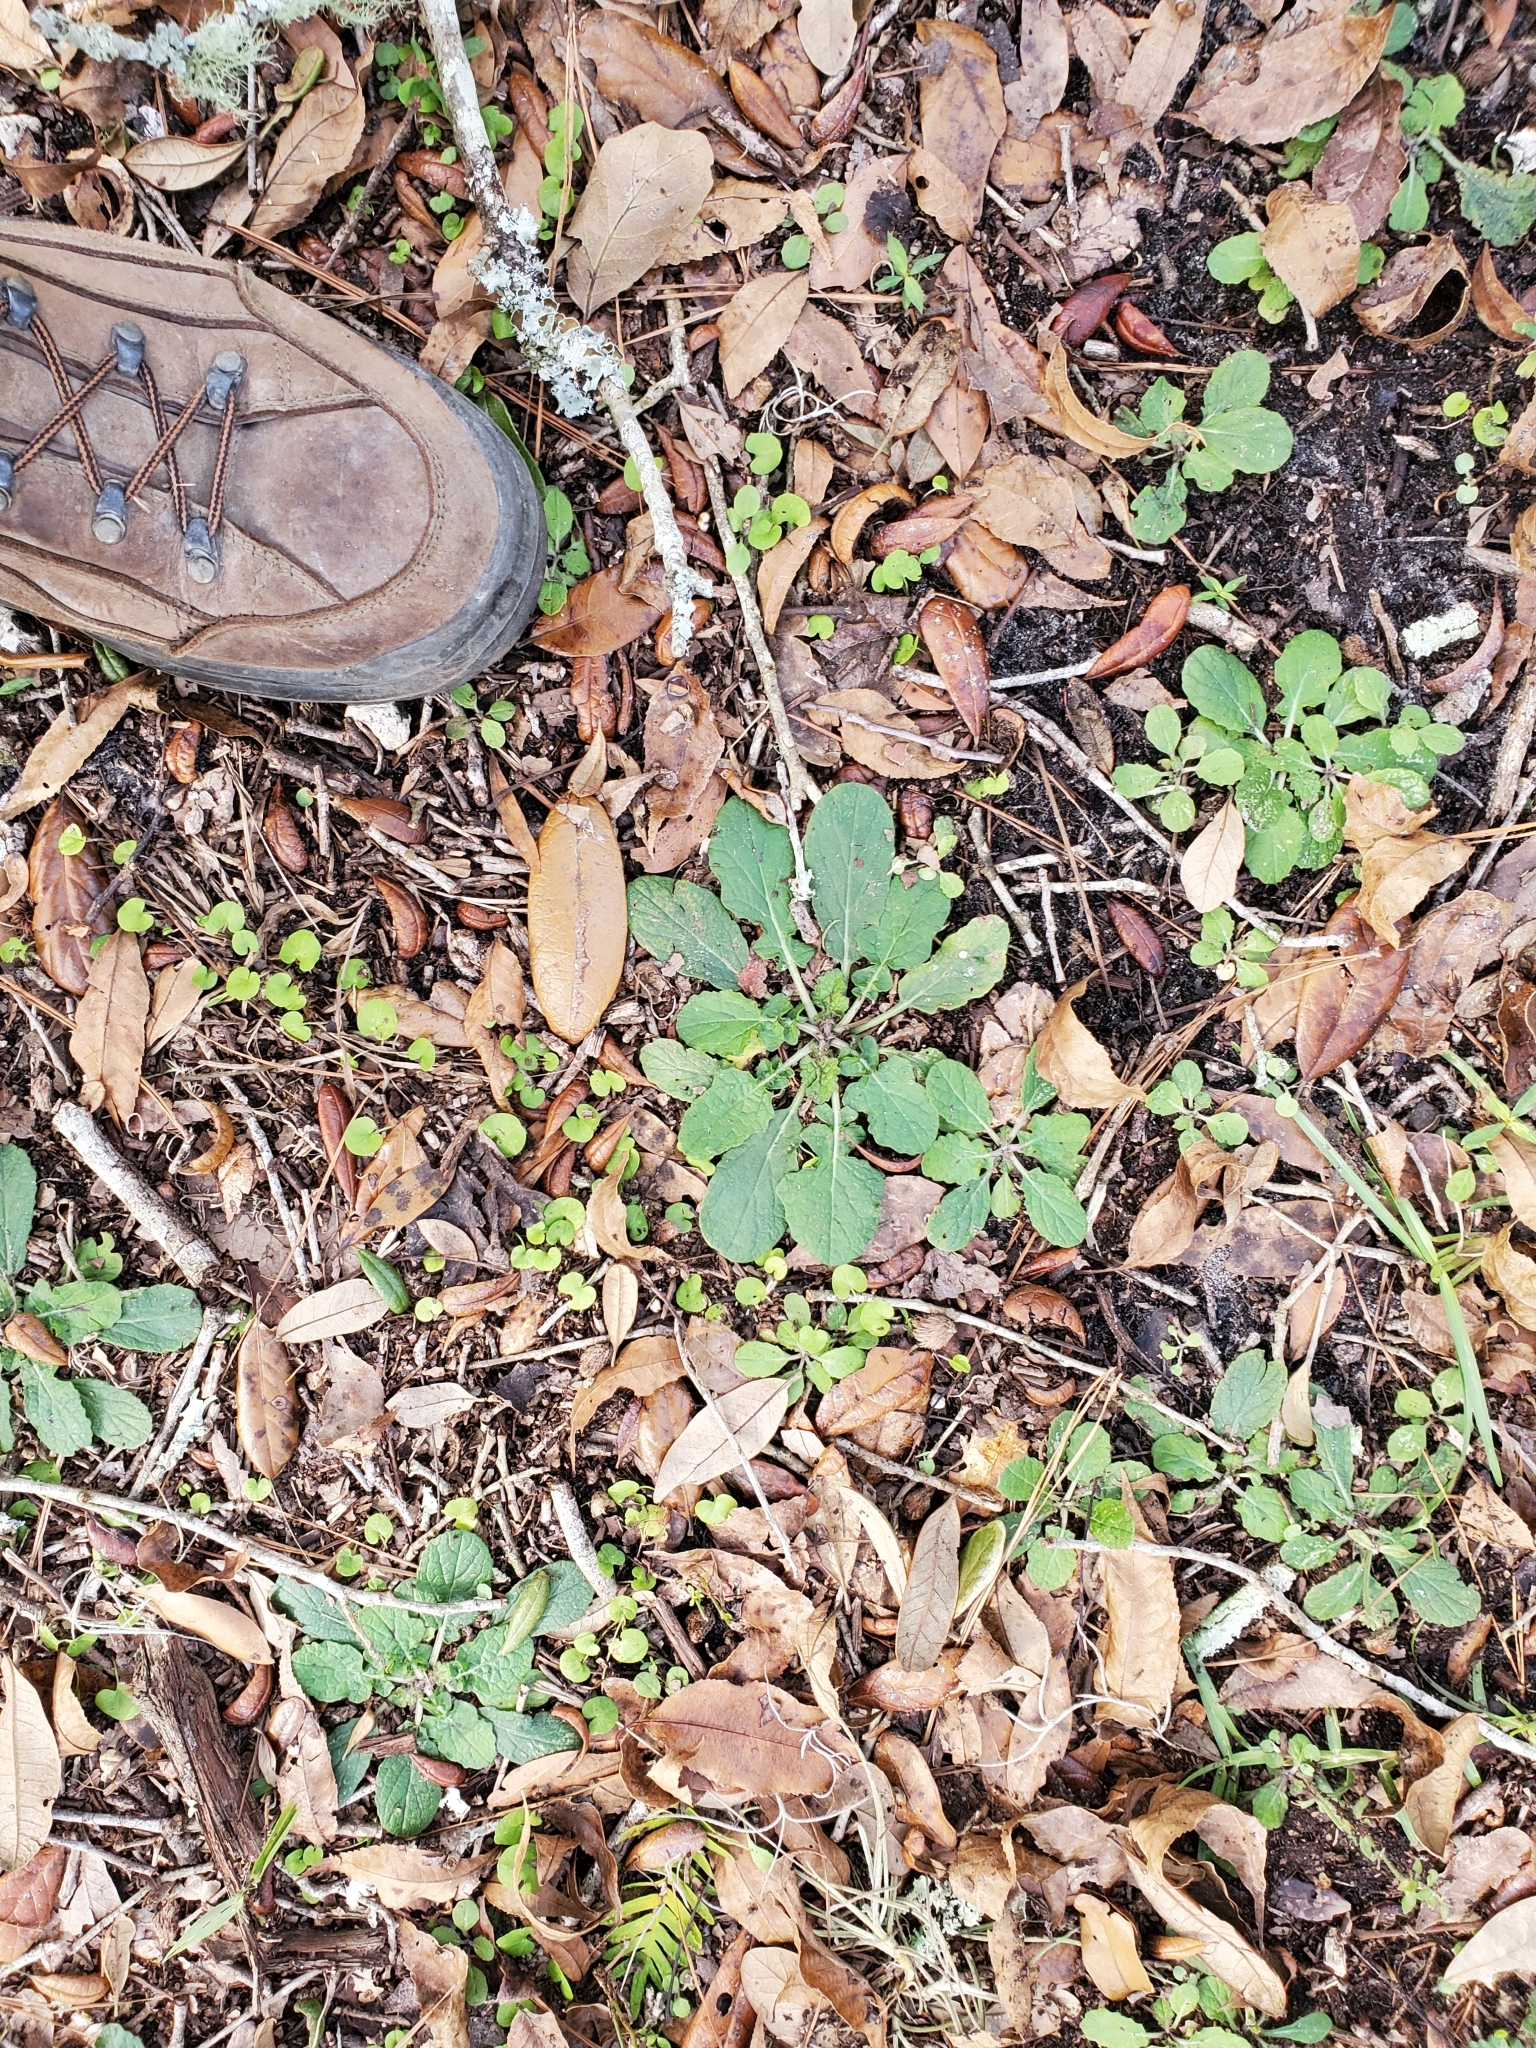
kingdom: Plantae
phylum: Tracheophyta
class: Magnoliopsida
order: Lamiales
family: Lamiaceae
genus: Salvia
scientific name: Salvia lyrata
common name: Cancerweed
